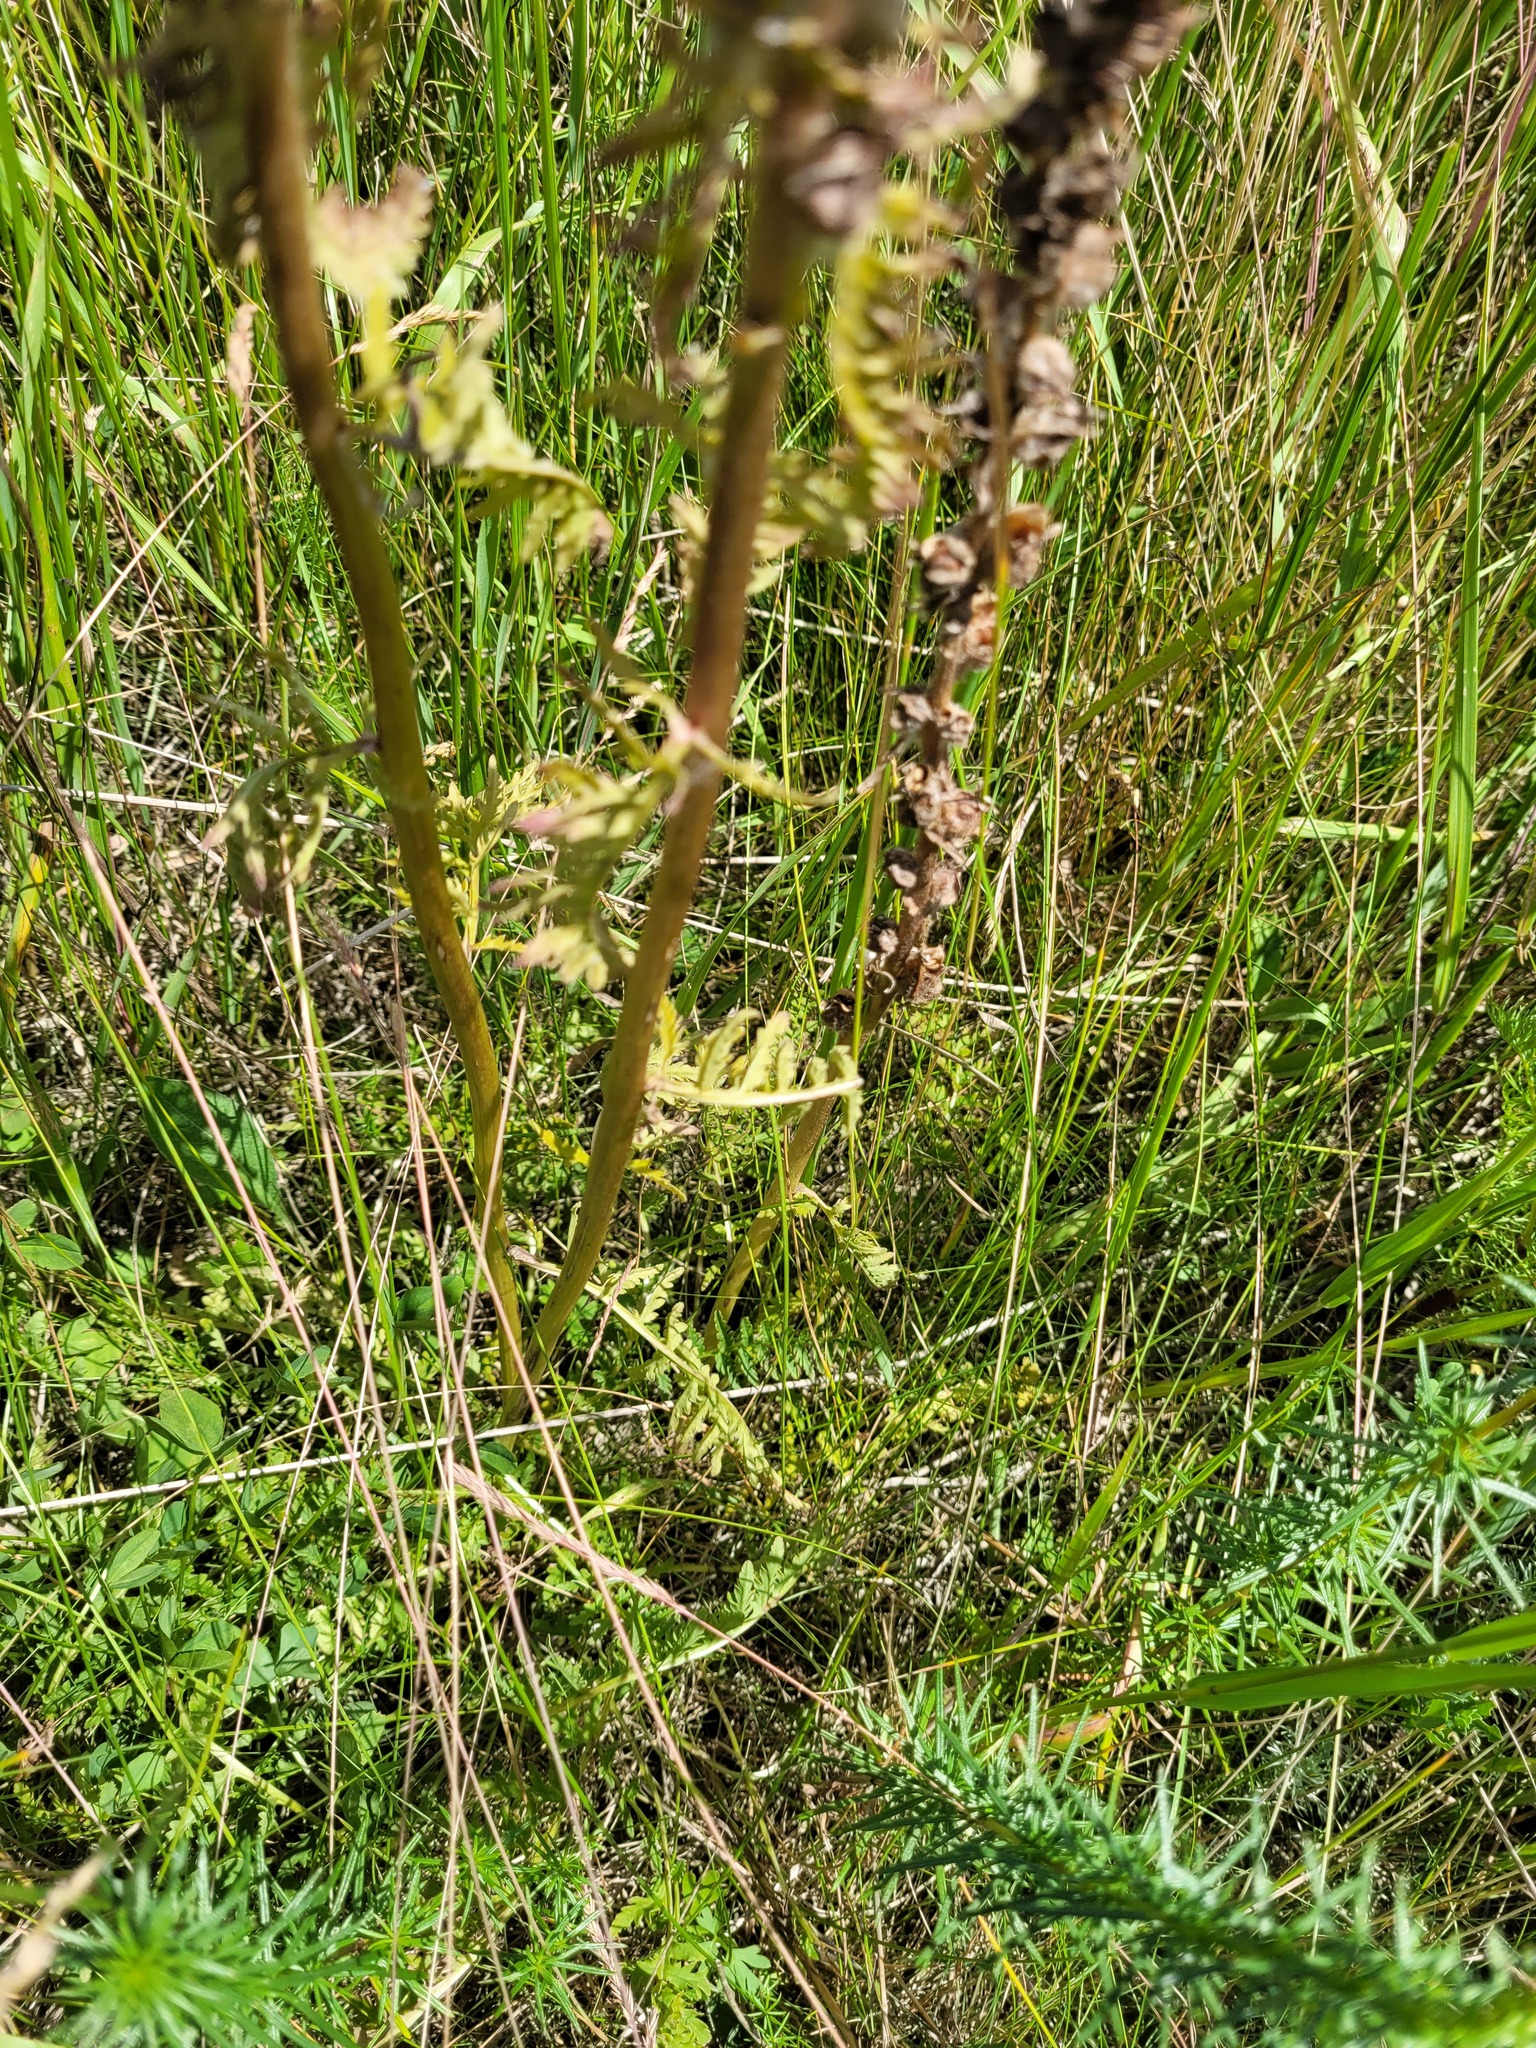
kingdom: Plantae
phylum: Tracheophyta
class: Magnoliopsida
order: Lamiales
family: Orobanchaceae
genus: Pedicularis
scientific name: Pedicularis dasystachys
